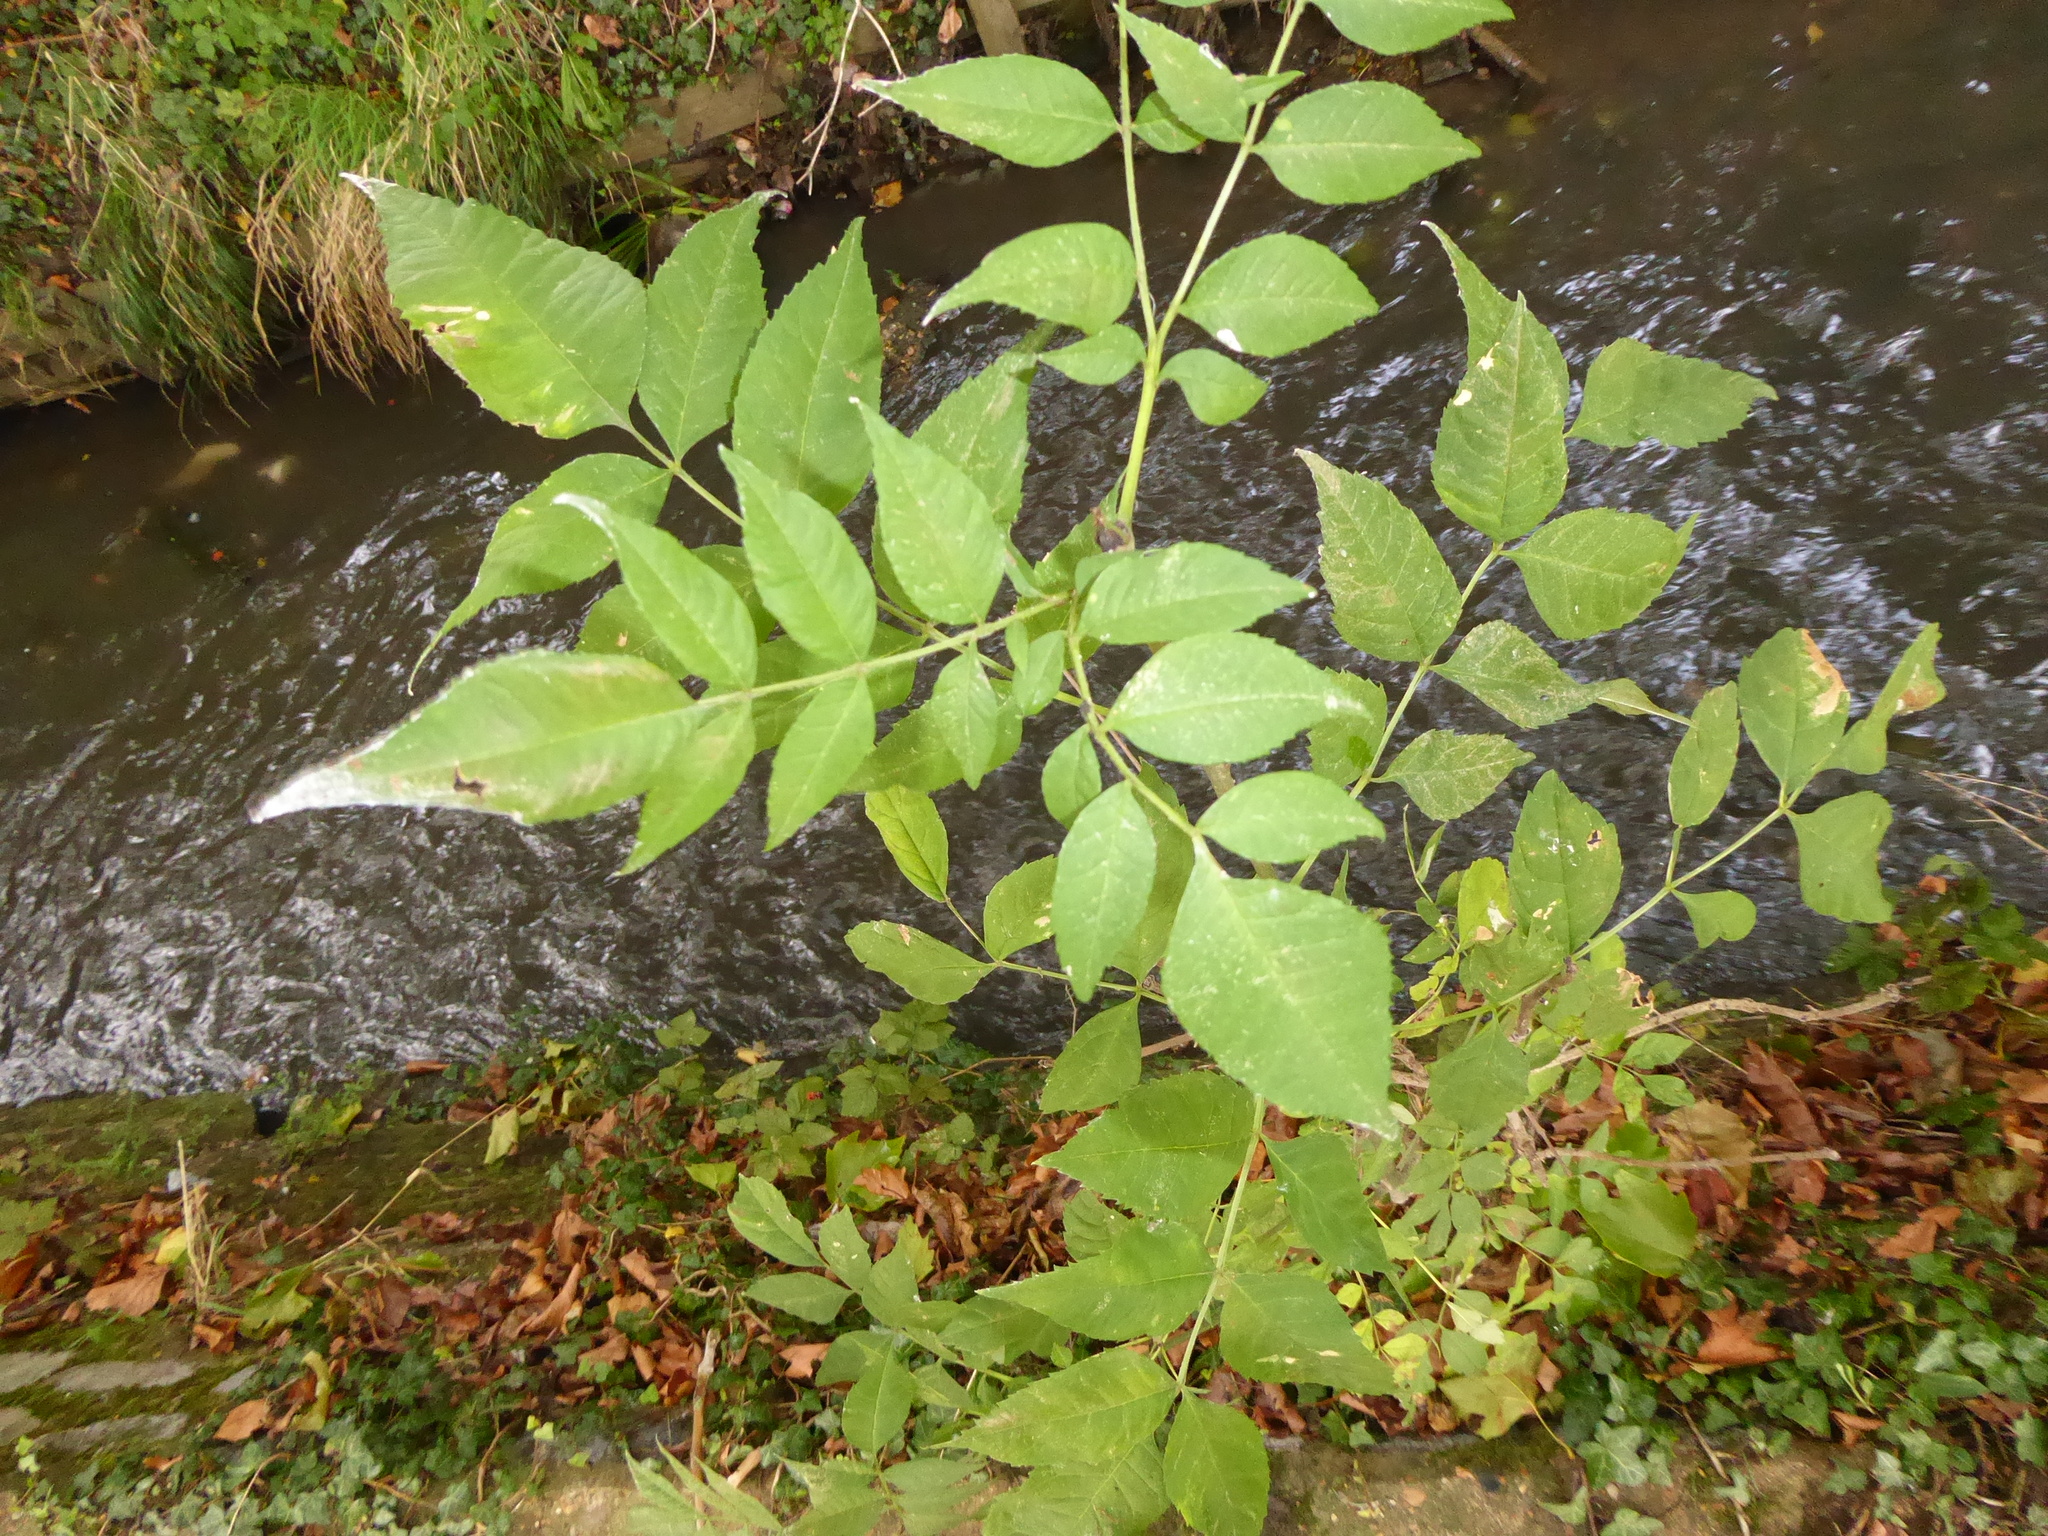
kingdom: Plantae
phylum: Tracheophyta
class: Magnoliopsida
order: Lamiales
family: Oleaceae
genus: Fraxinus
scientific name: Fraxinus excelsior
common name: European ash
